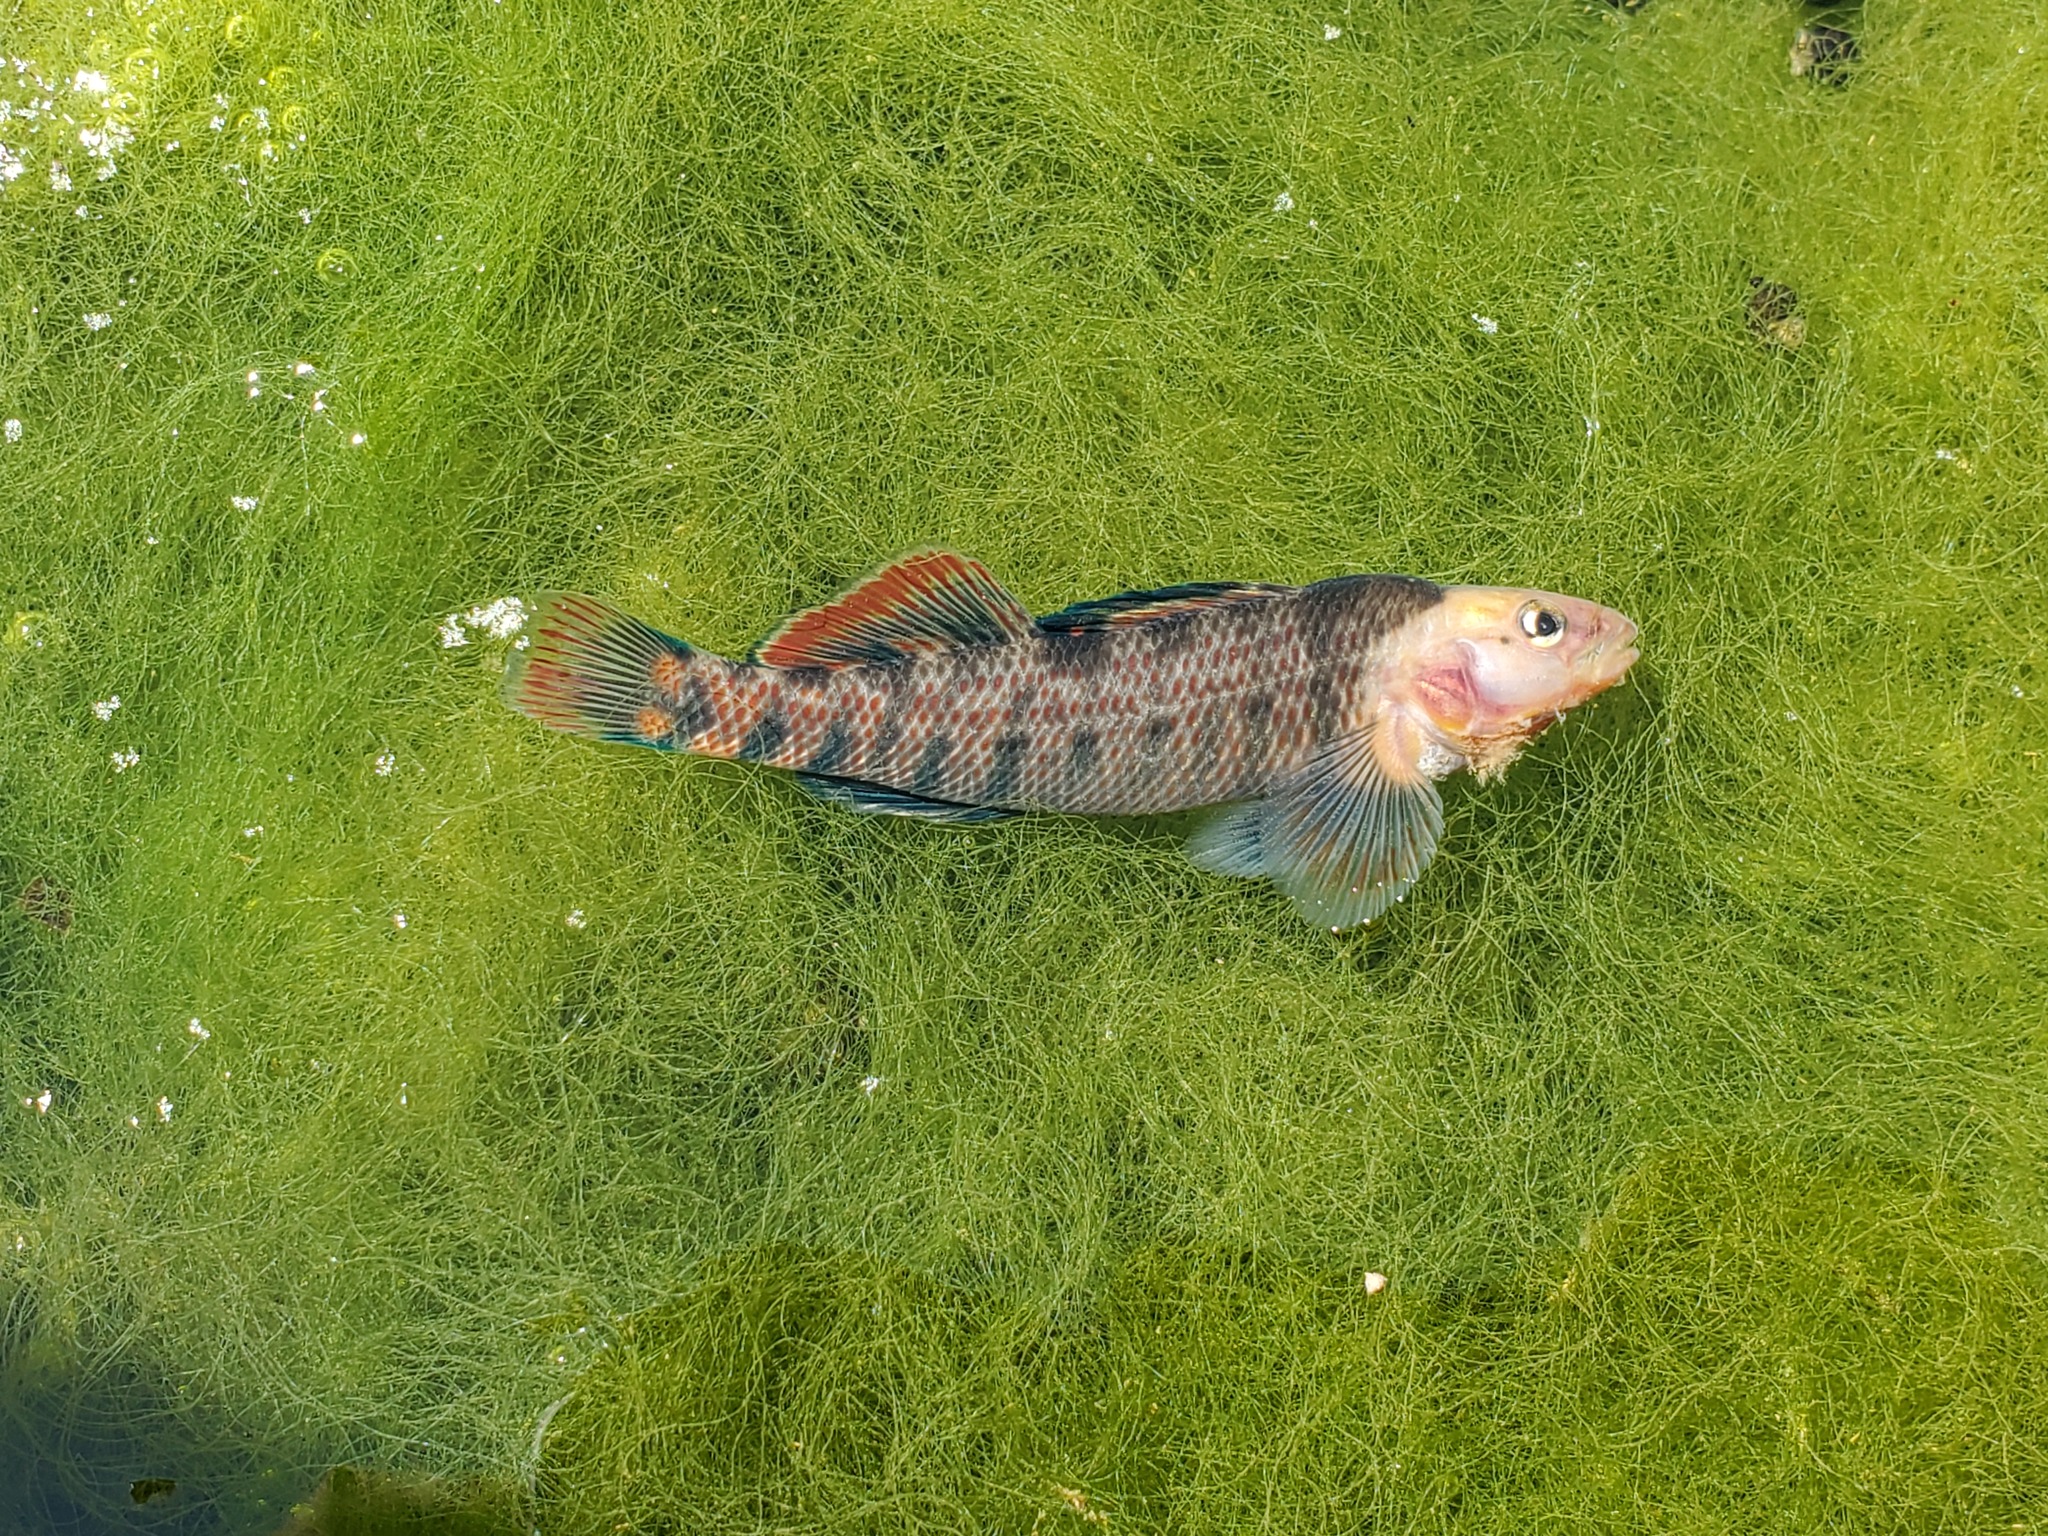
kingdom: Animalia
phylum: Chordata
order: Perciformes
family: Percidae
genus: Etheostoma
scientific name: Etheostoma caeruleum
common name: Rainbow darter
